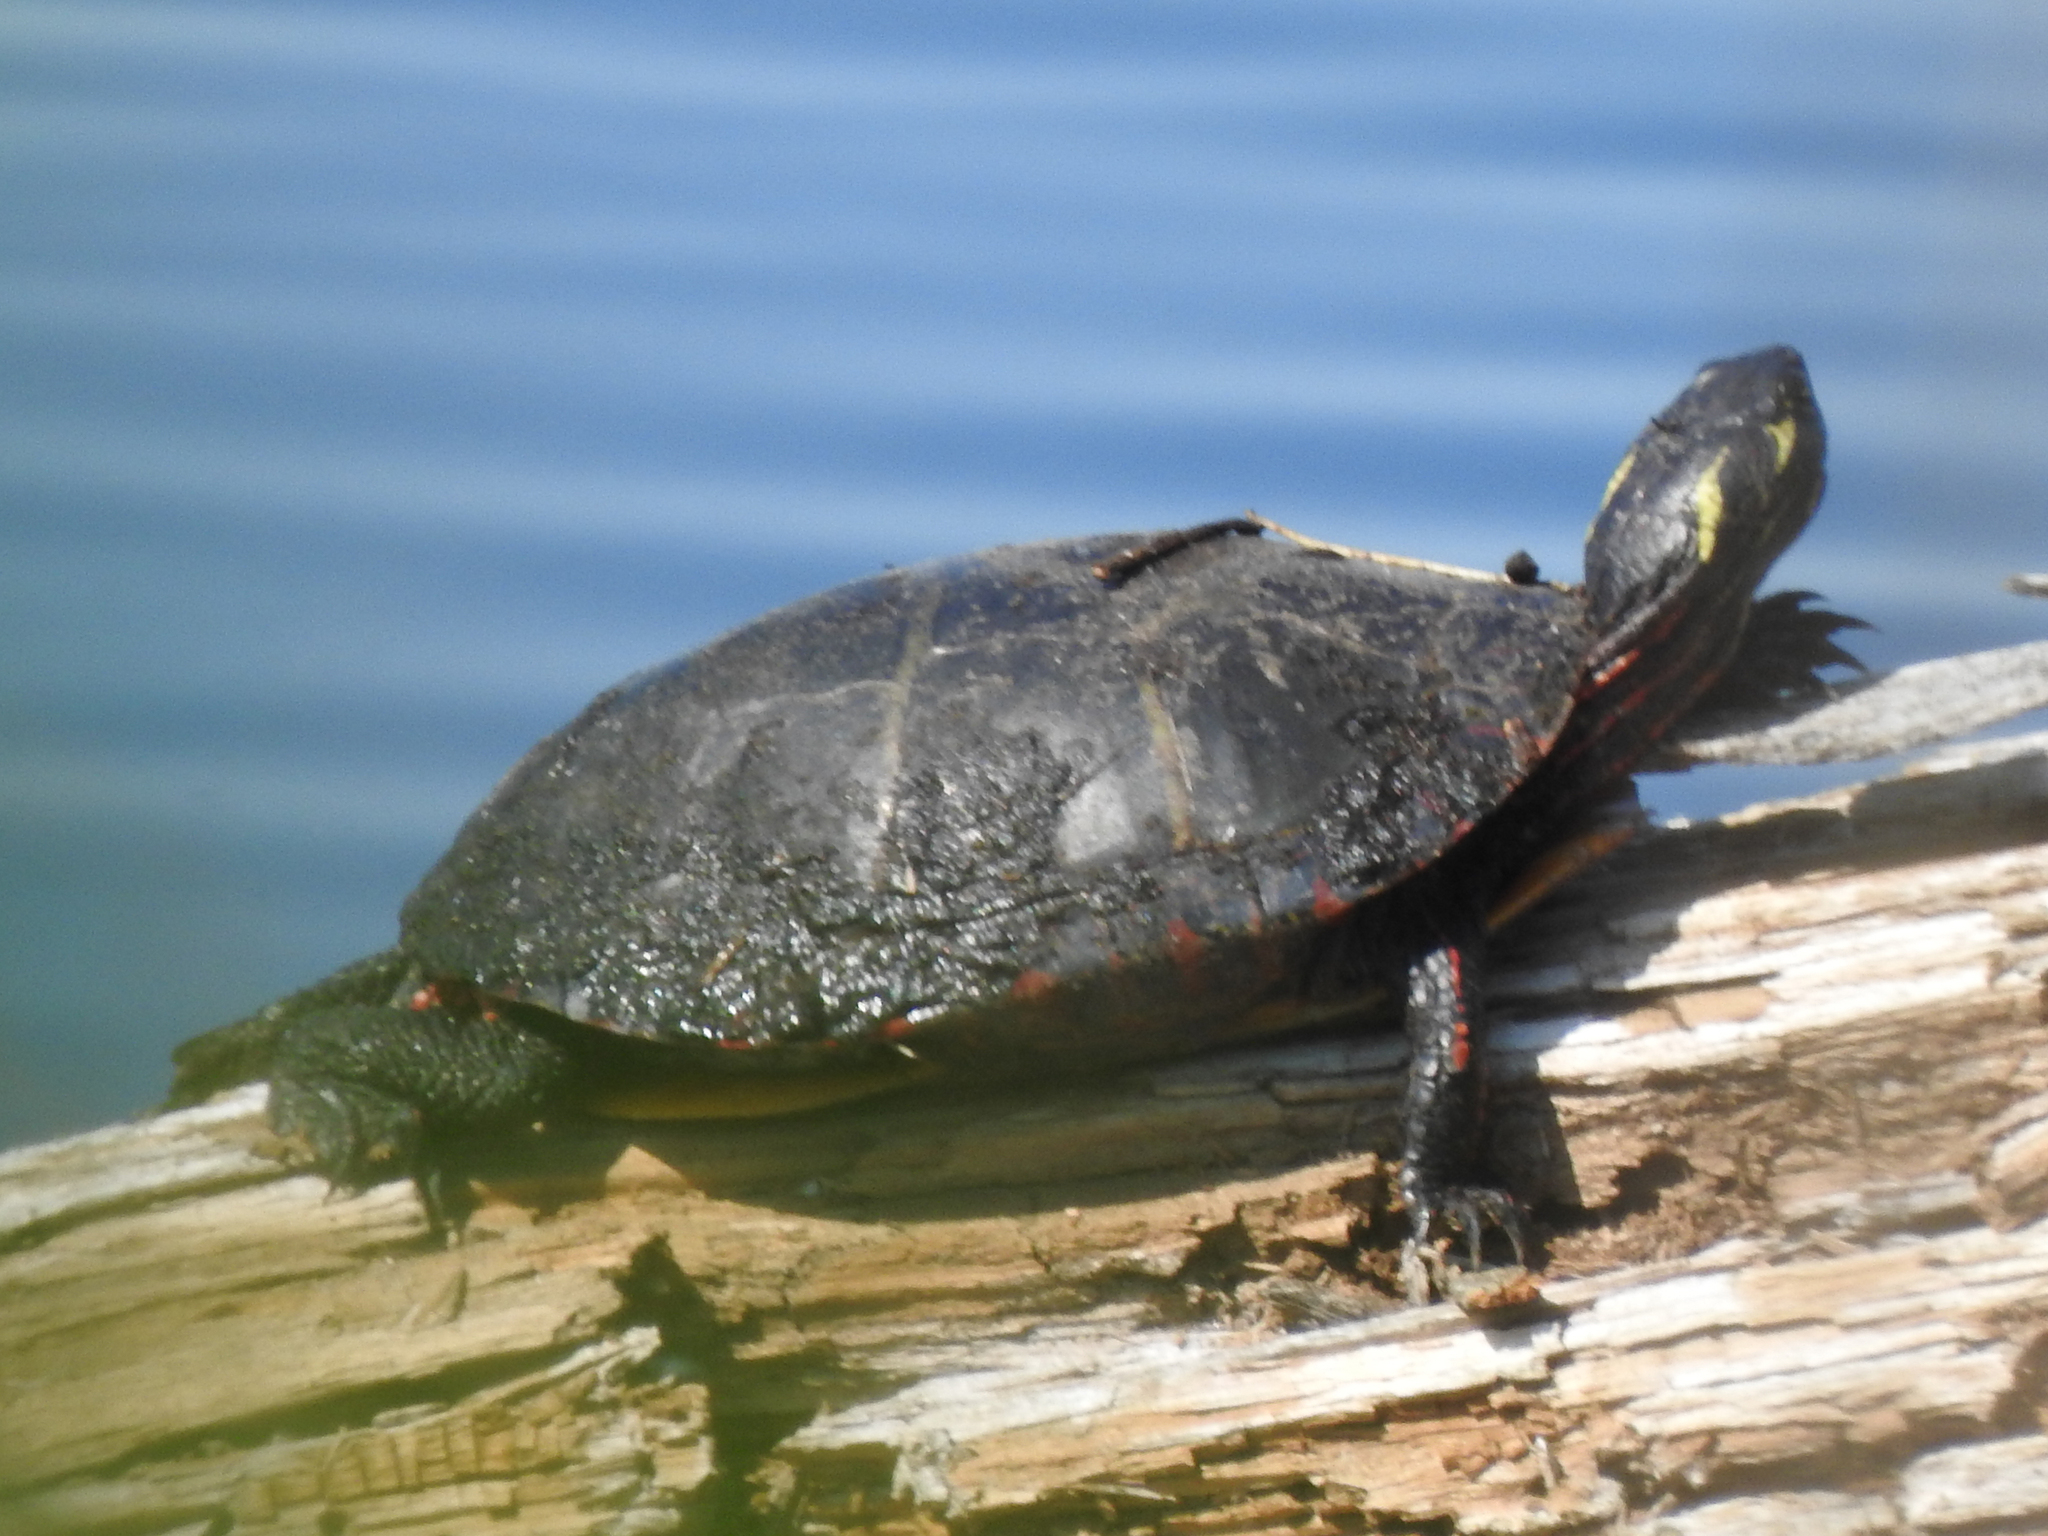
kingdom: Animalia
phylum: Chordata
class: Testudines
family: Emydidae
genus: Chrysemys
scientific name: Chrysemys picta
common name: Painted turtle
